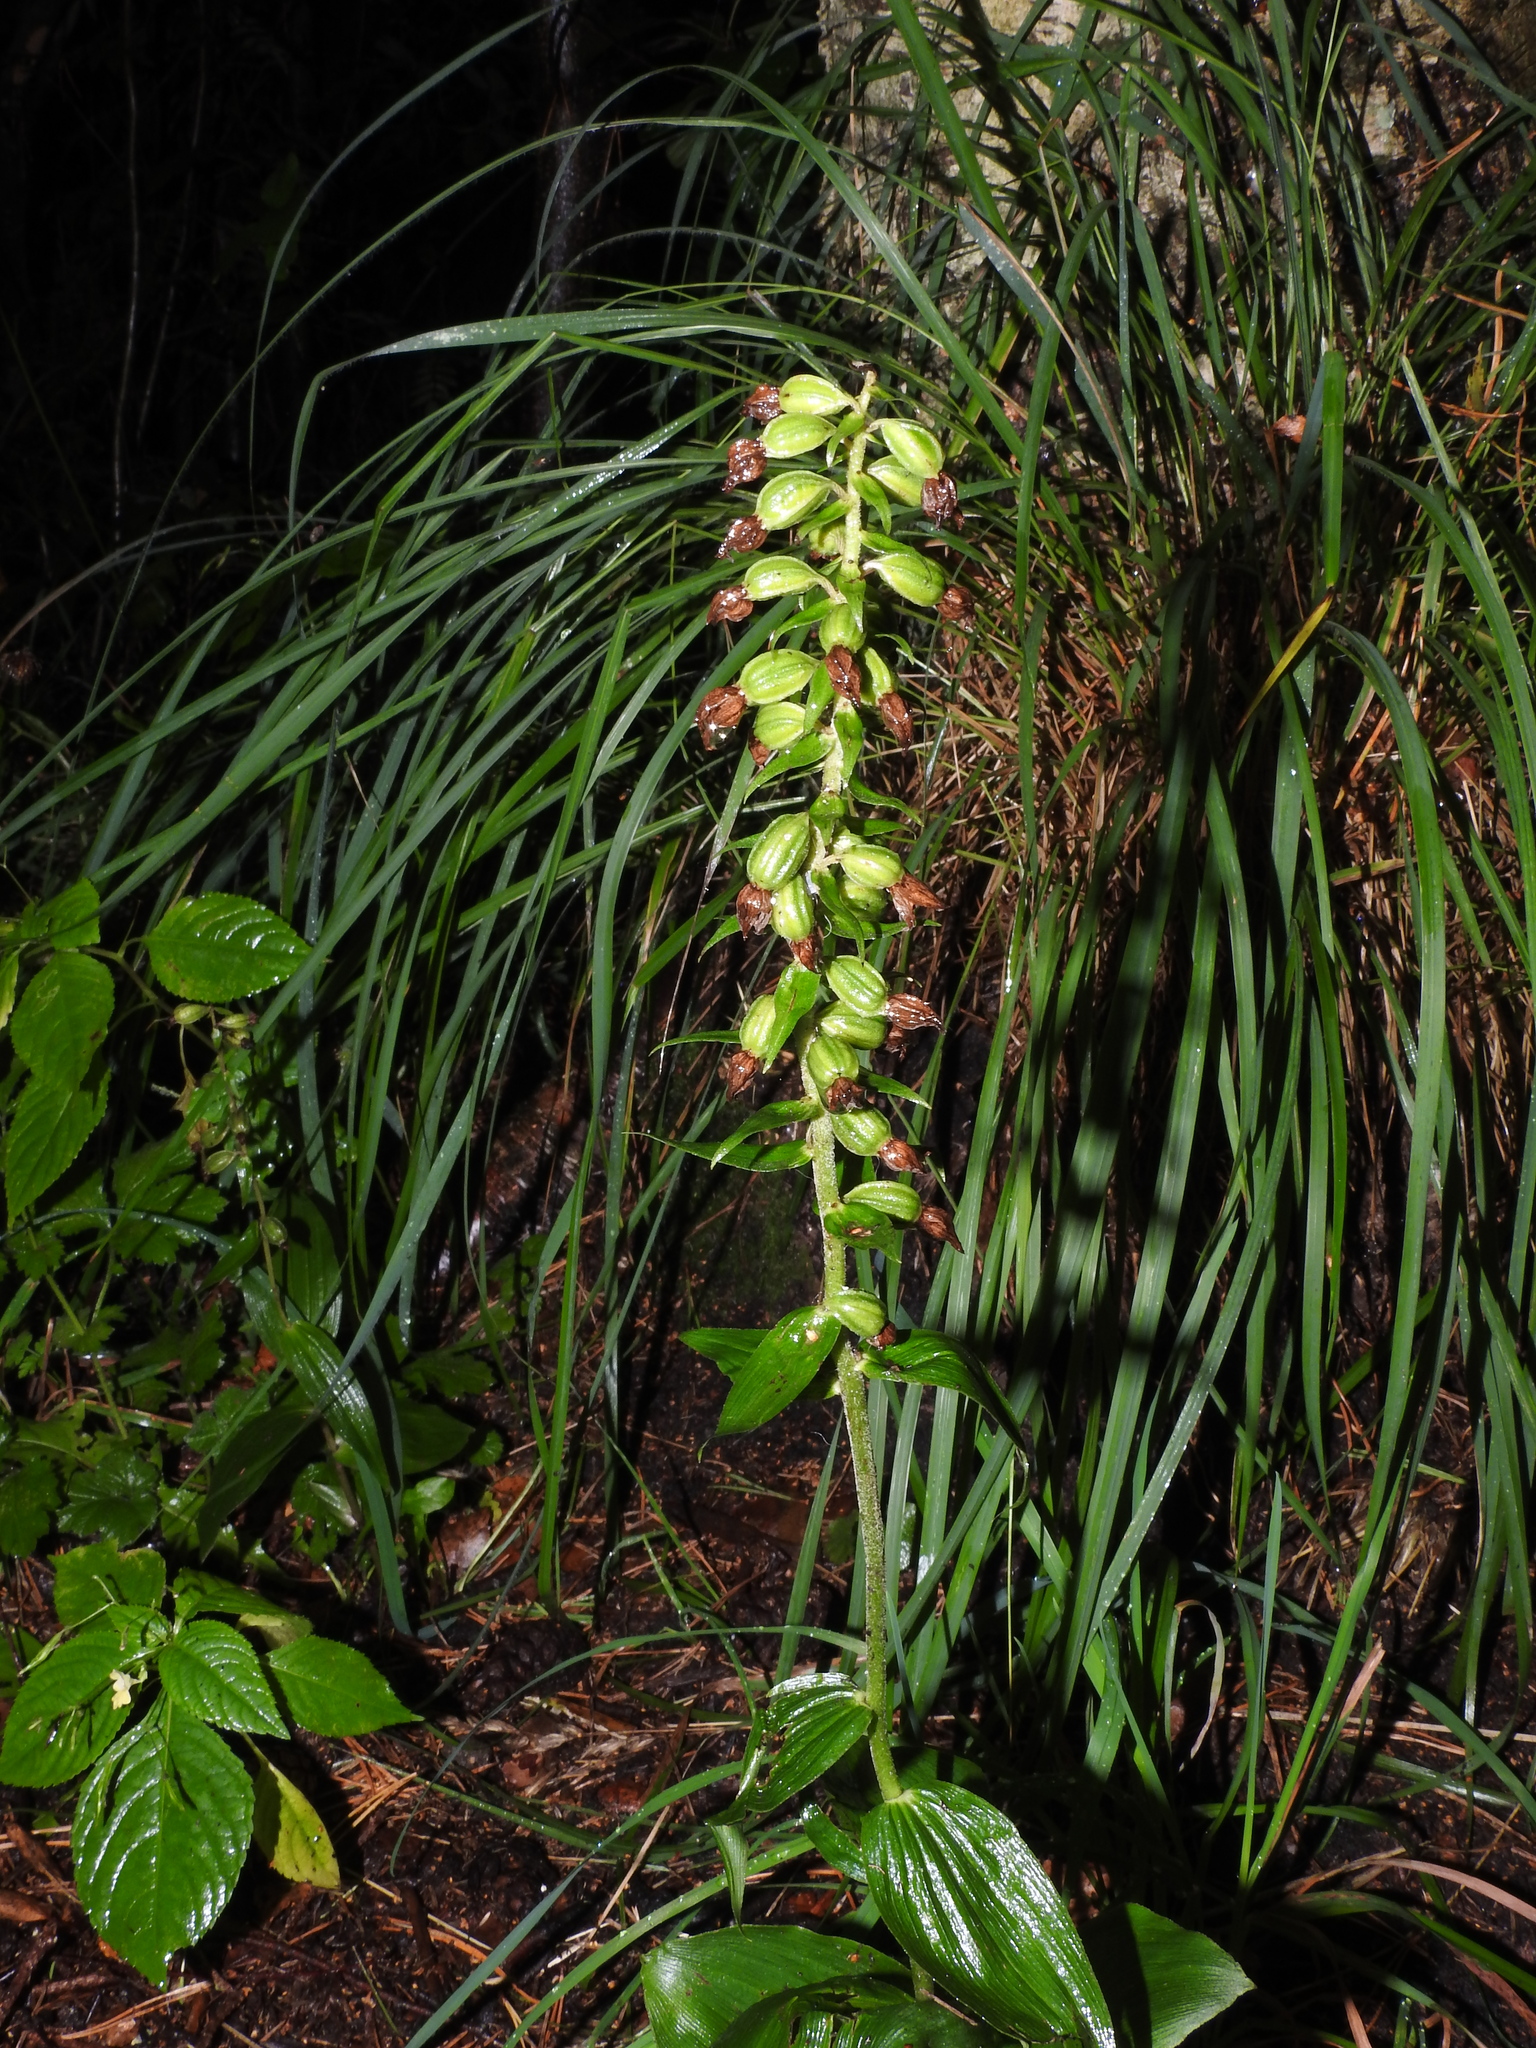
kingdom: Plantae
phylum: Tracheophyta
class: Liliopsida
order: Asparagales
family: Orchidaceae
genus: Epipactis
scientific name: Epipactis helleborine
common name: Broad-leaved helleborine
